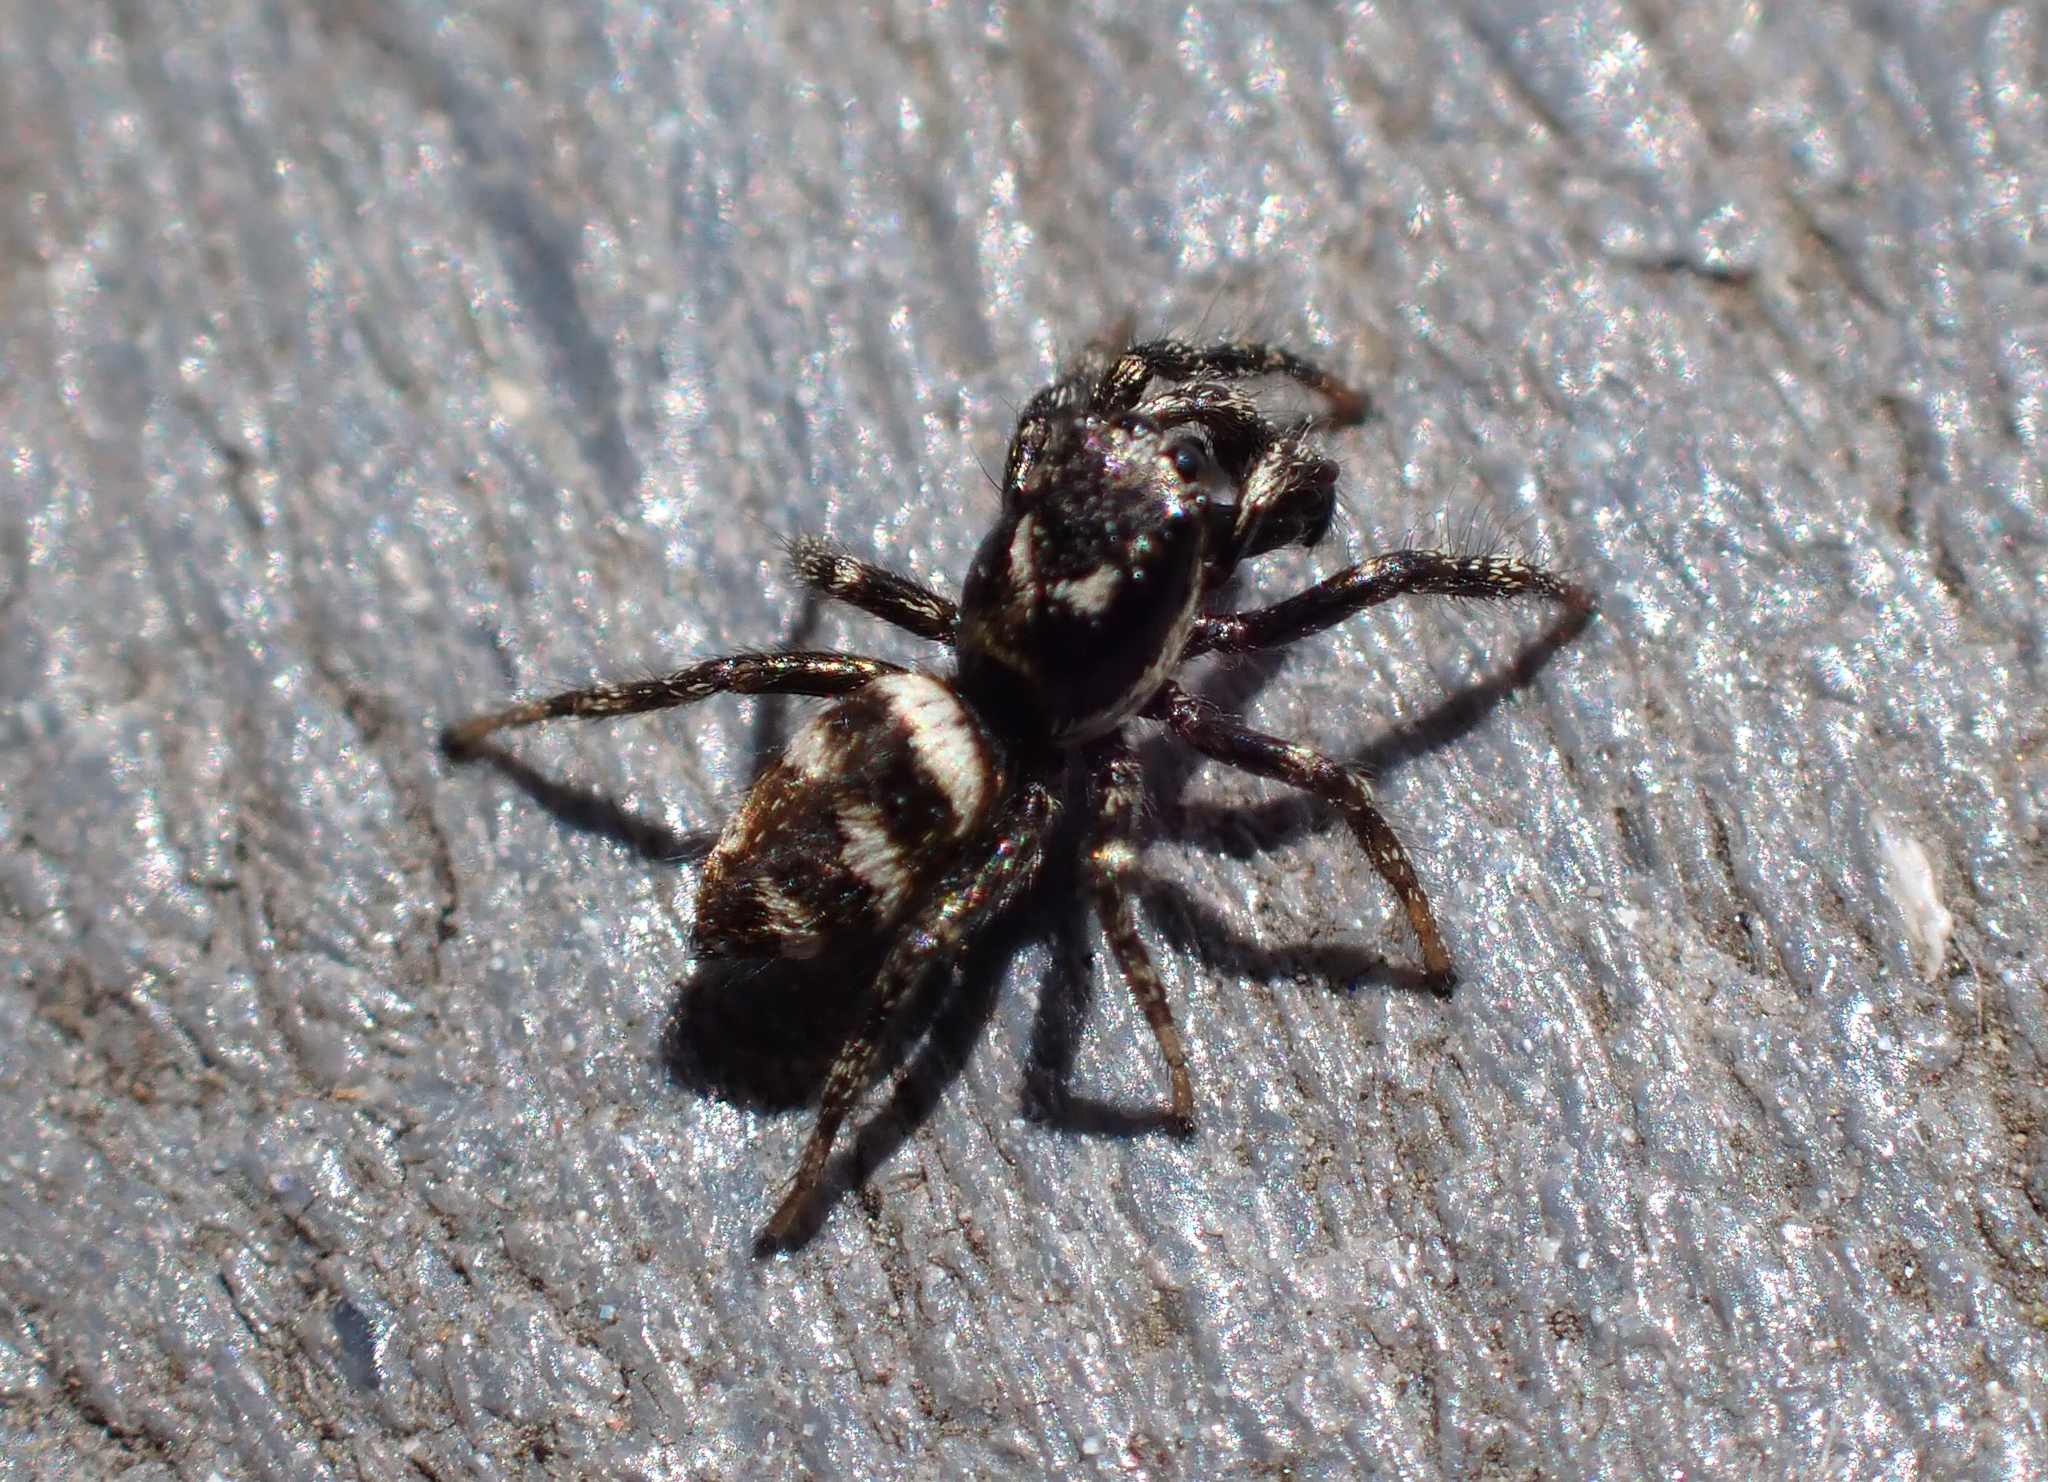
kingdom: Animalia
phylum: Arthropoda
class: Arachnida
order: Araneae
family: Salticidae
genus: Salticus
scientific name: Salticus scenicus
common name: Zebra jumper
